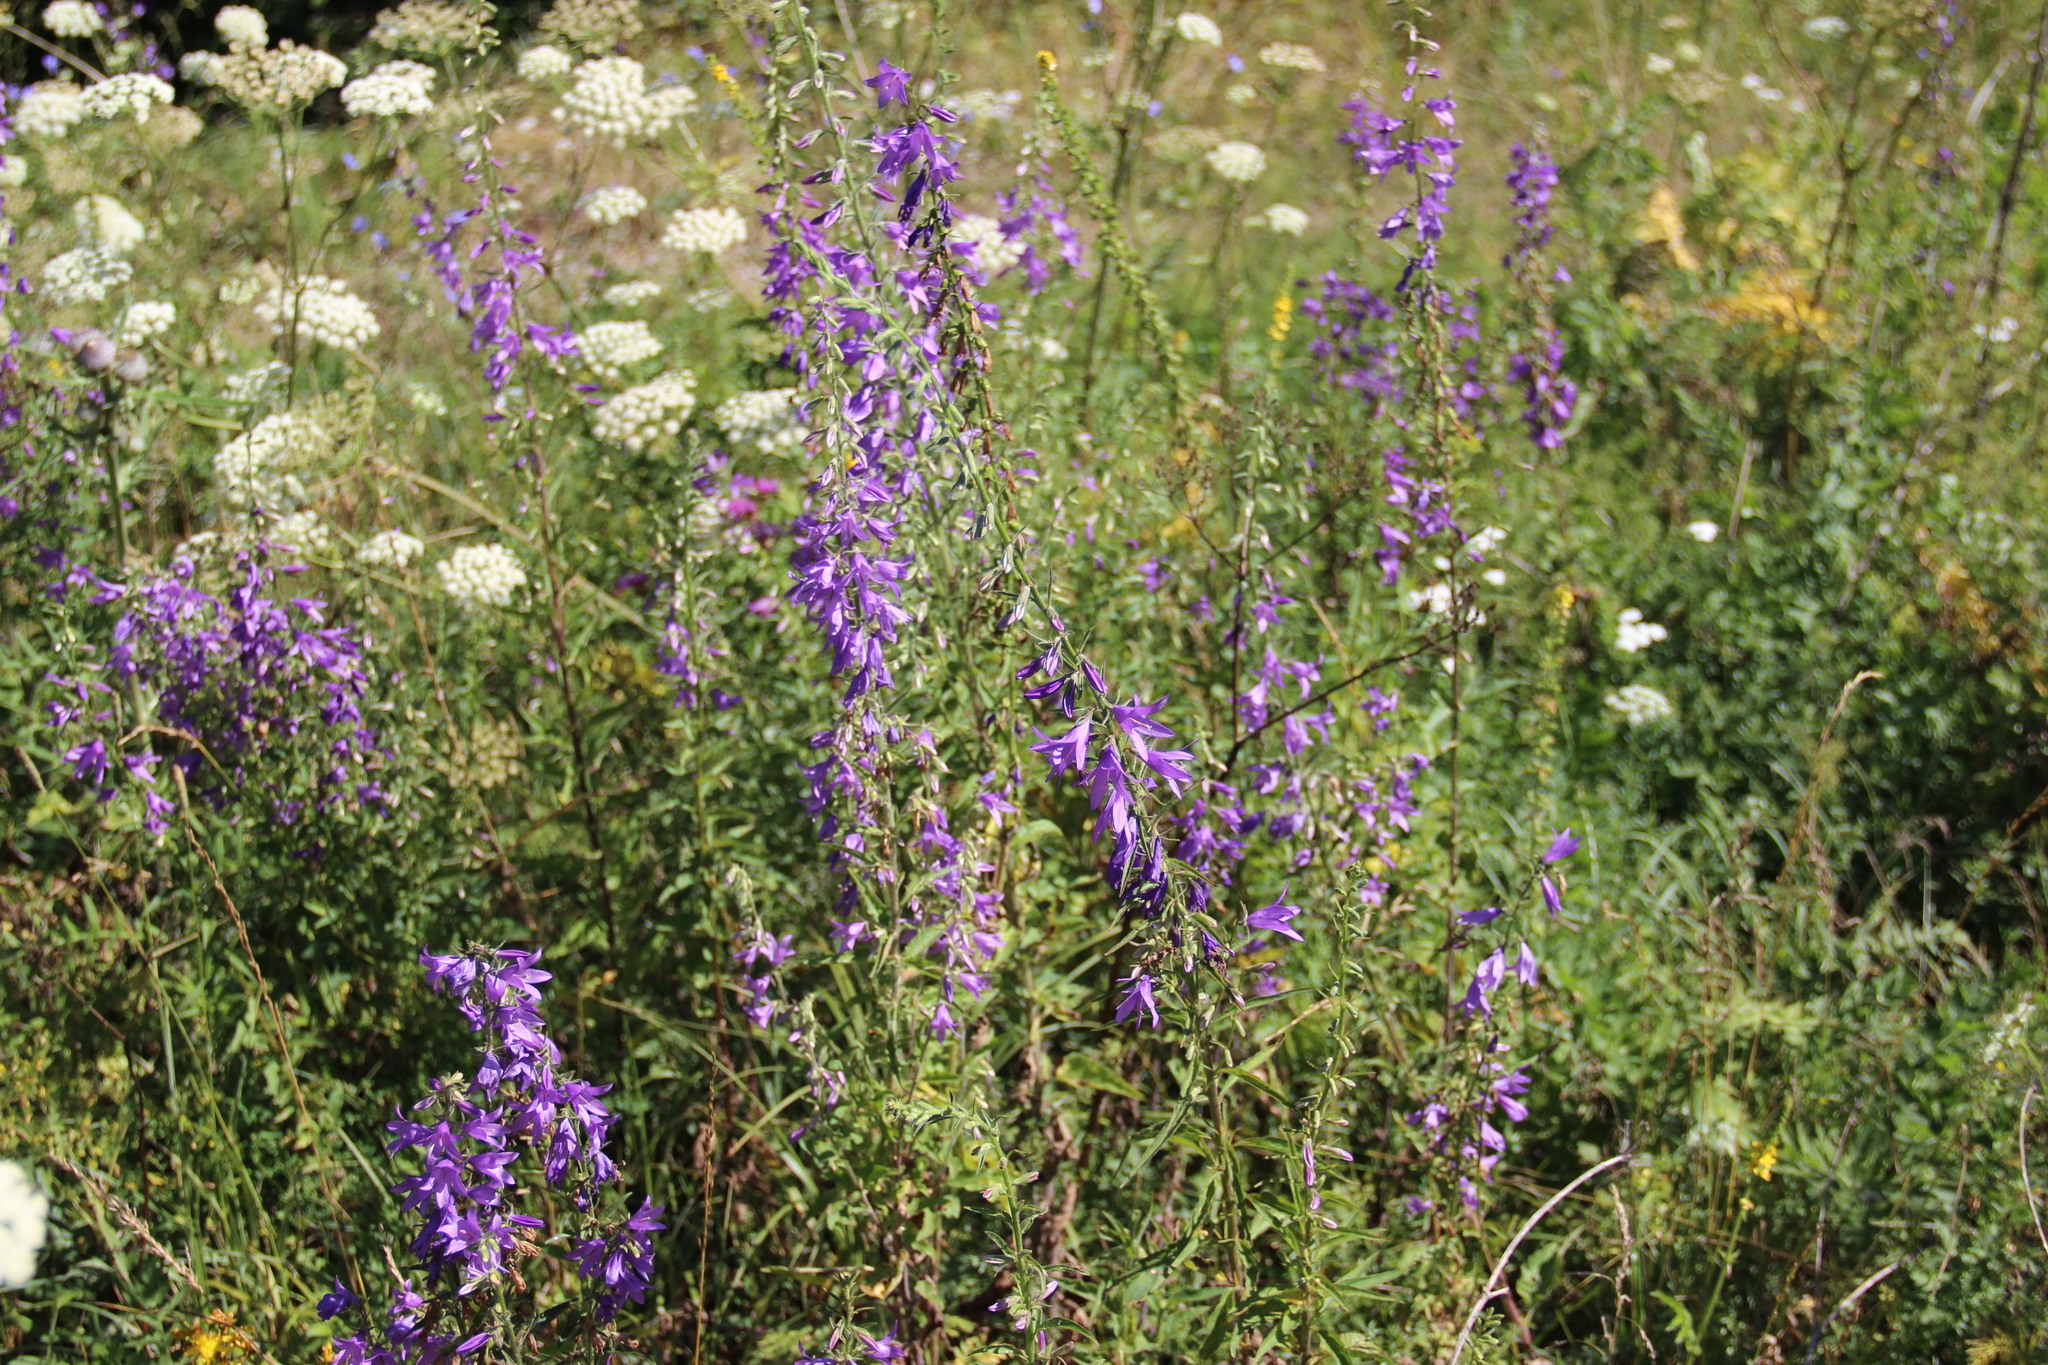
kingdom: Plantae
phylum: Tracheophyta
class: Magnoliopsida
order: Asterales
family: Campanulaceae
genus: Campanula
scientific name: Campanula rapunculoides
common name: Creeping bellflower
